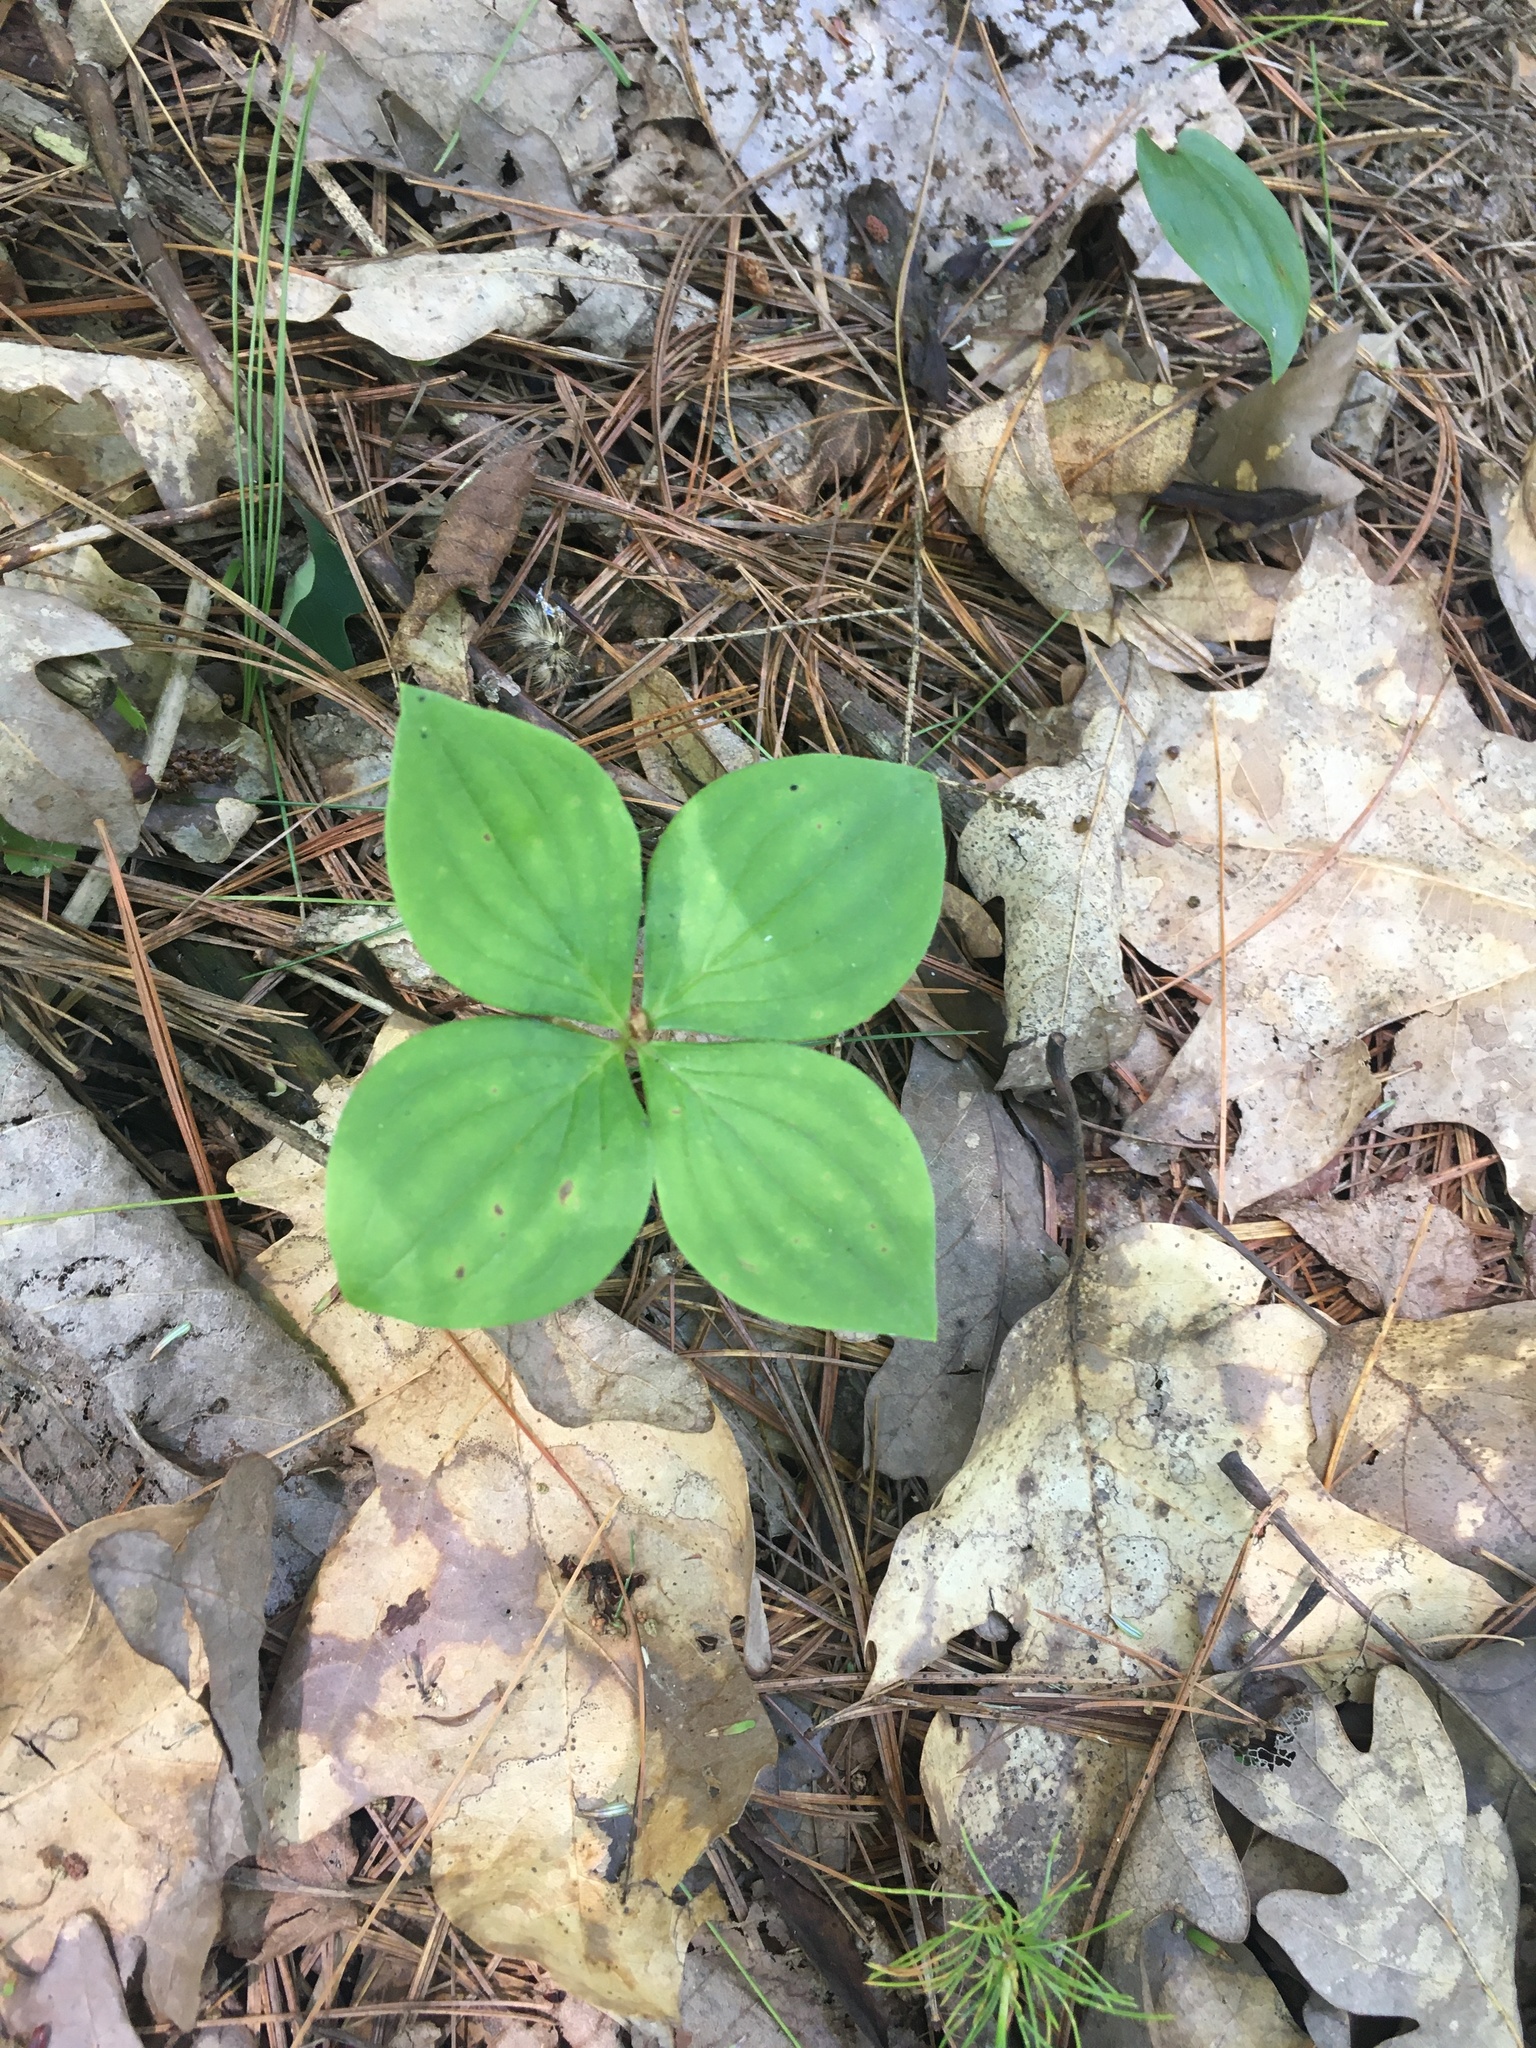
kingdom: Plantae
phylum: Tracheophyta
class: Magnoliopsida
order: Cornales
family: Cornaceae
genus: Cornus
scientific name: Cornus canadensis
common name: Creeping dogwood
